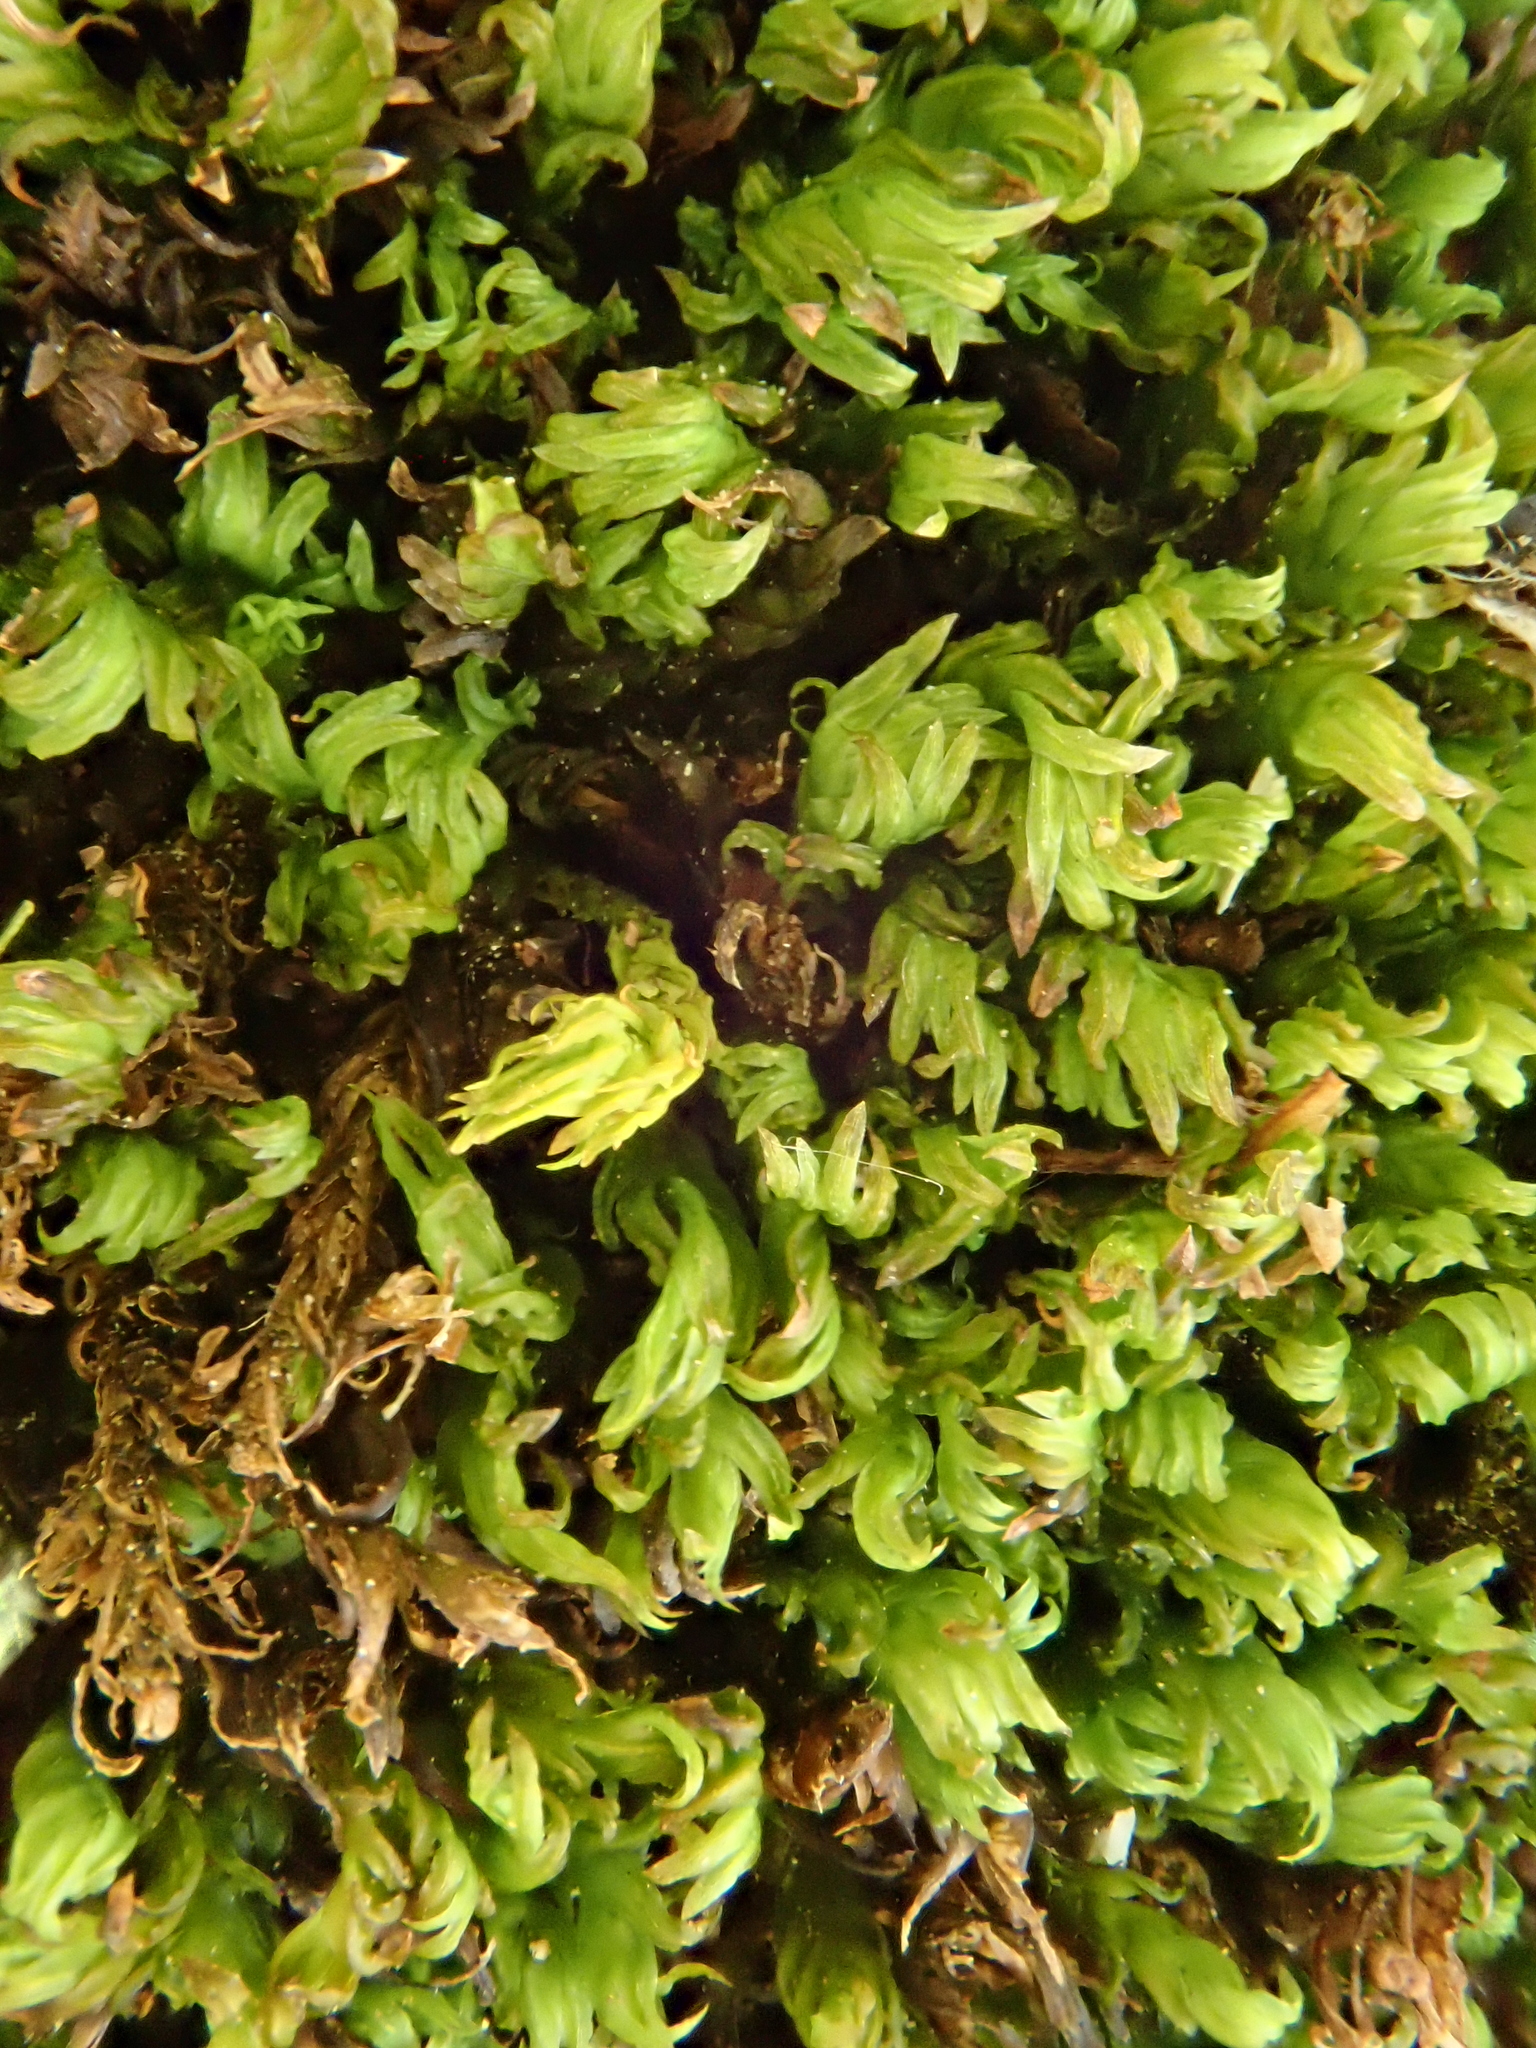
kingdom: Plantae
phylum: Bryophyta
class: Bryopsida
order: Dicranales
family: Fissidentaceae
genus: Fissidens
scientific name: Fissidens dubius
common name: Rock pocket moss
